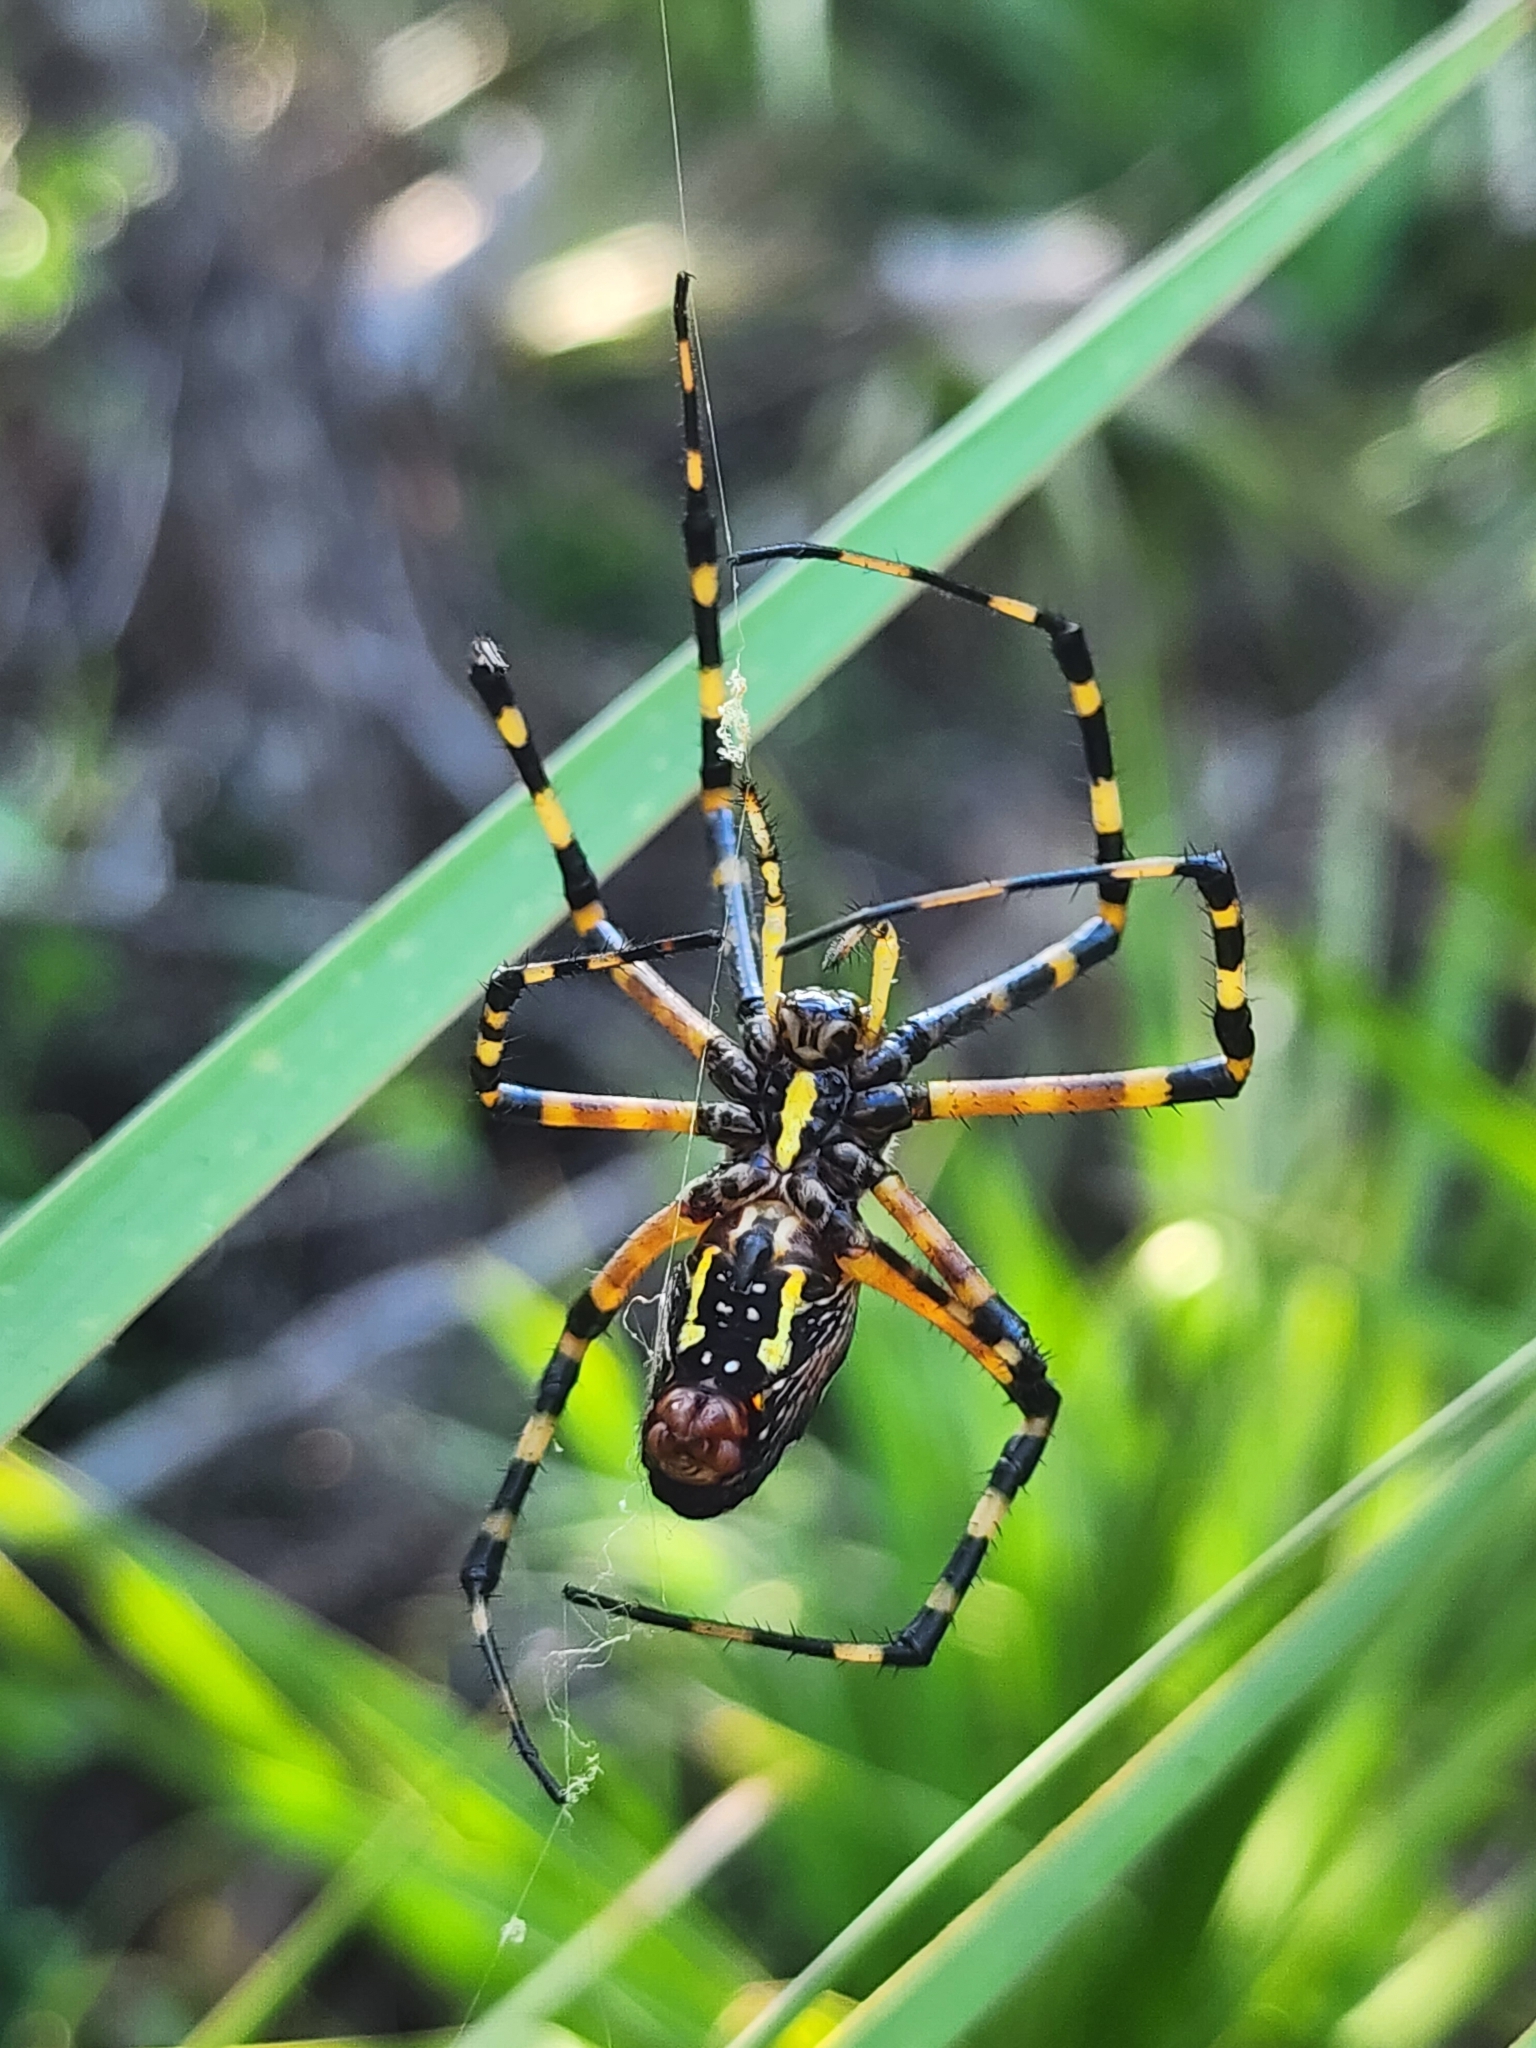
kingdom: Animalia
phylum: Arthropoda
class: Arachnida
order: Araneae
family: Araneidae
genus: Argiope
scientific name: Argiope aurantia
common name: Orb weavers
